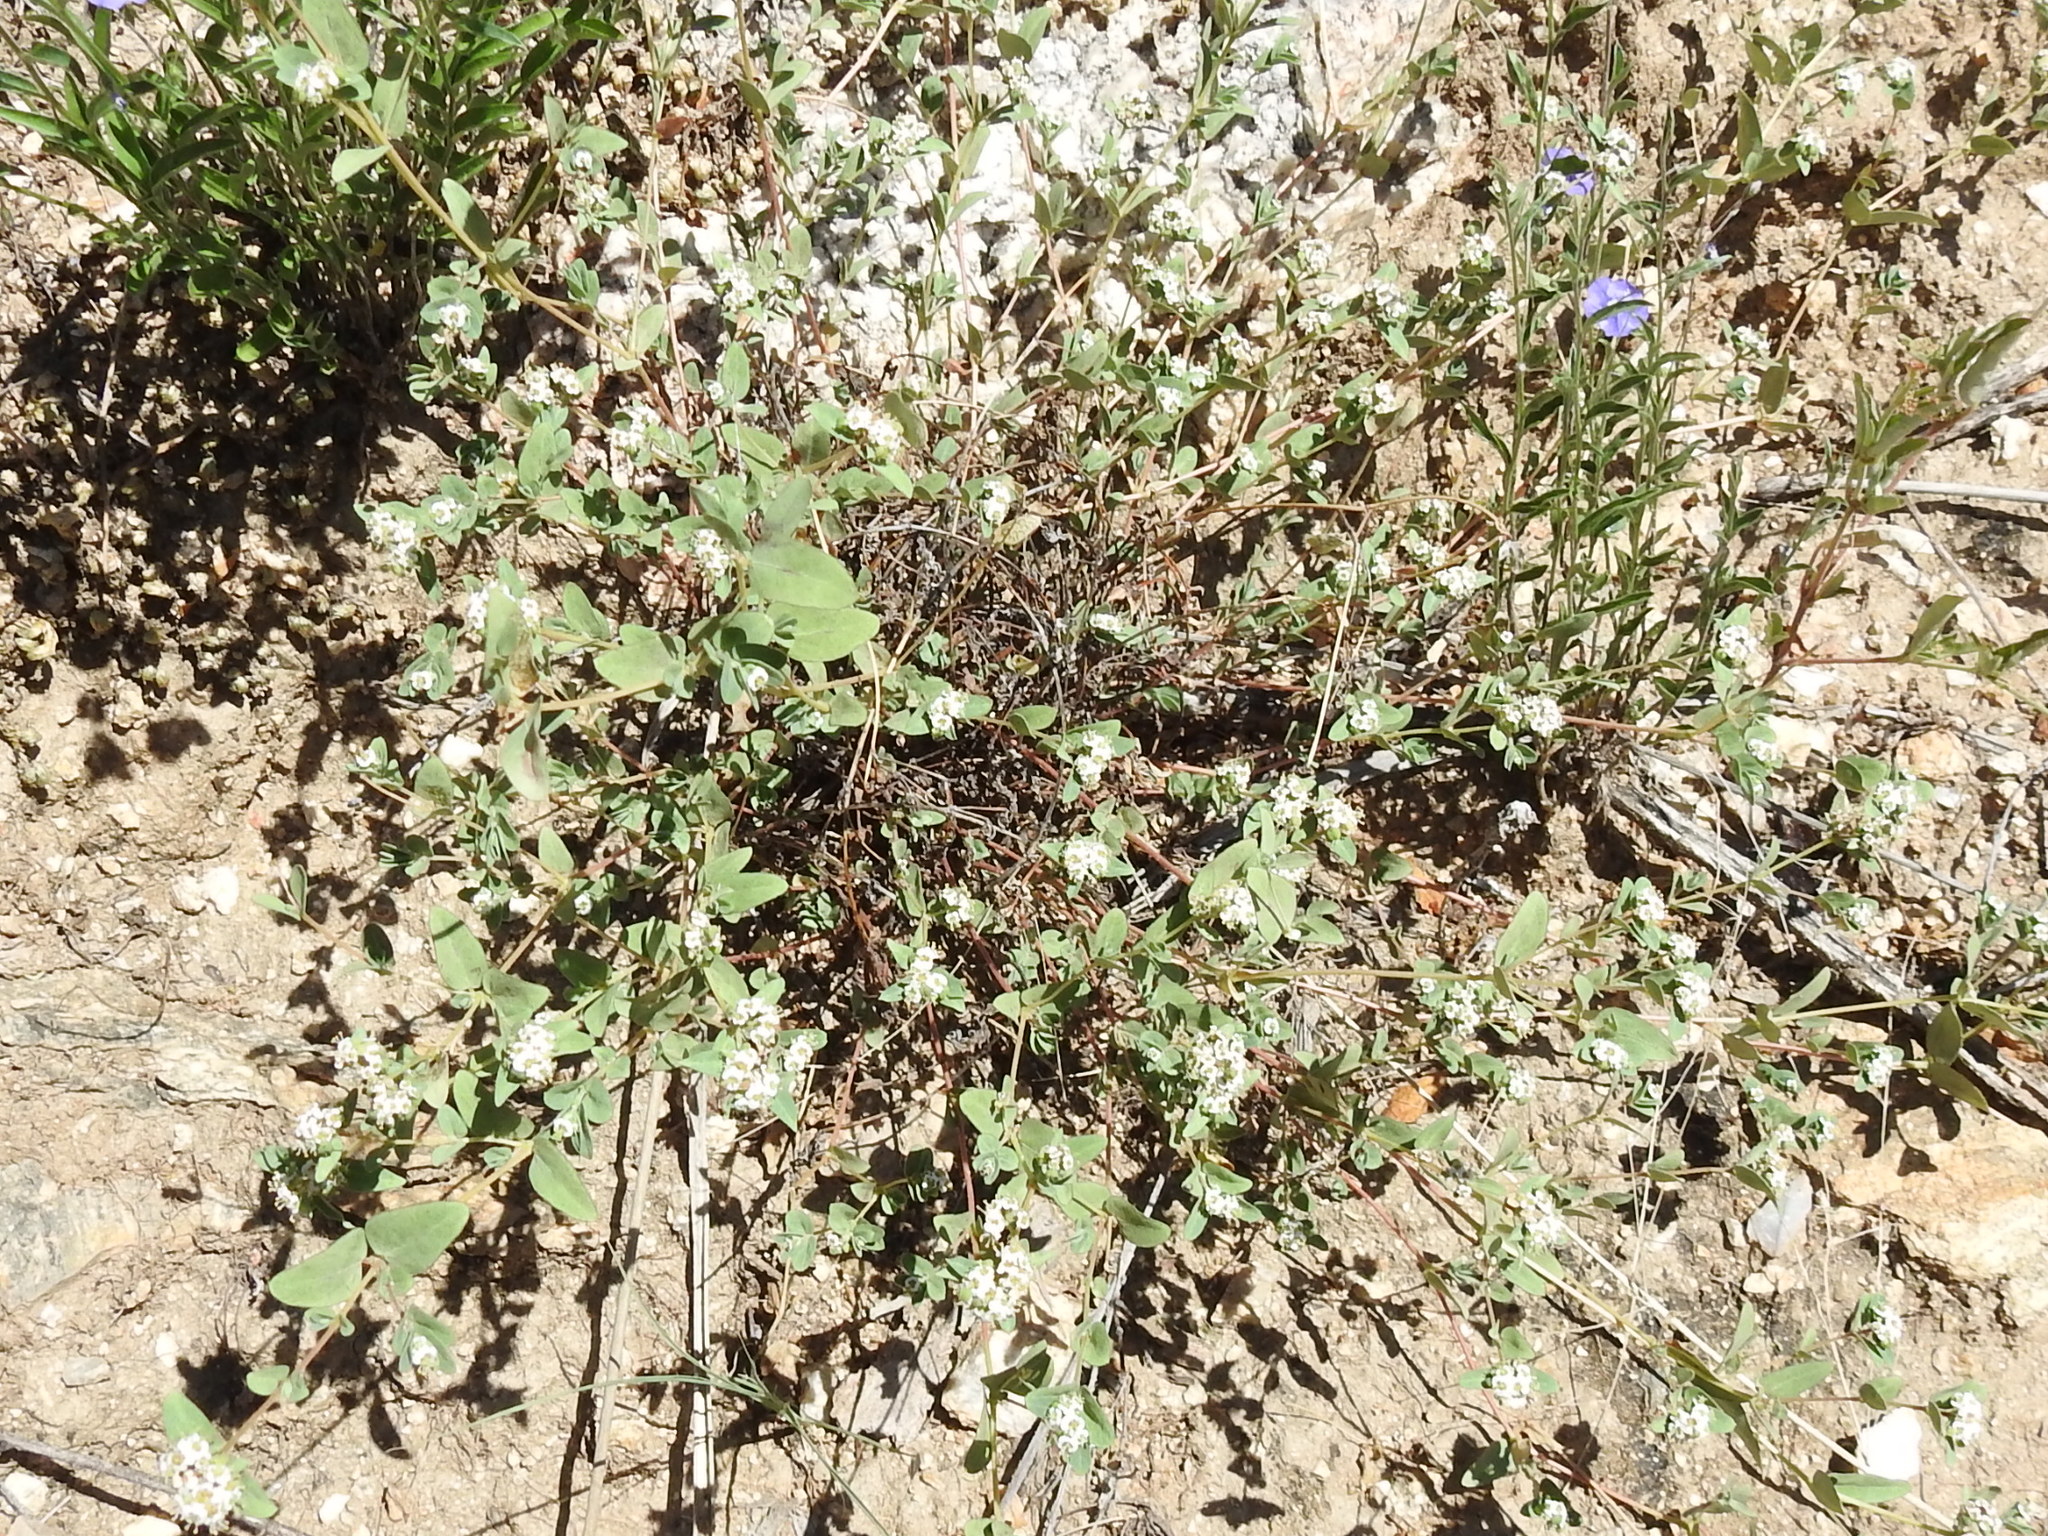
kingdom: Plantae
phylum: Tracheophyta
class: Magnoliopsida
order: Malpighiales
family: Euphorbiaceae
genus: Euphorbia
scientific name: Euphorbia capitellata
